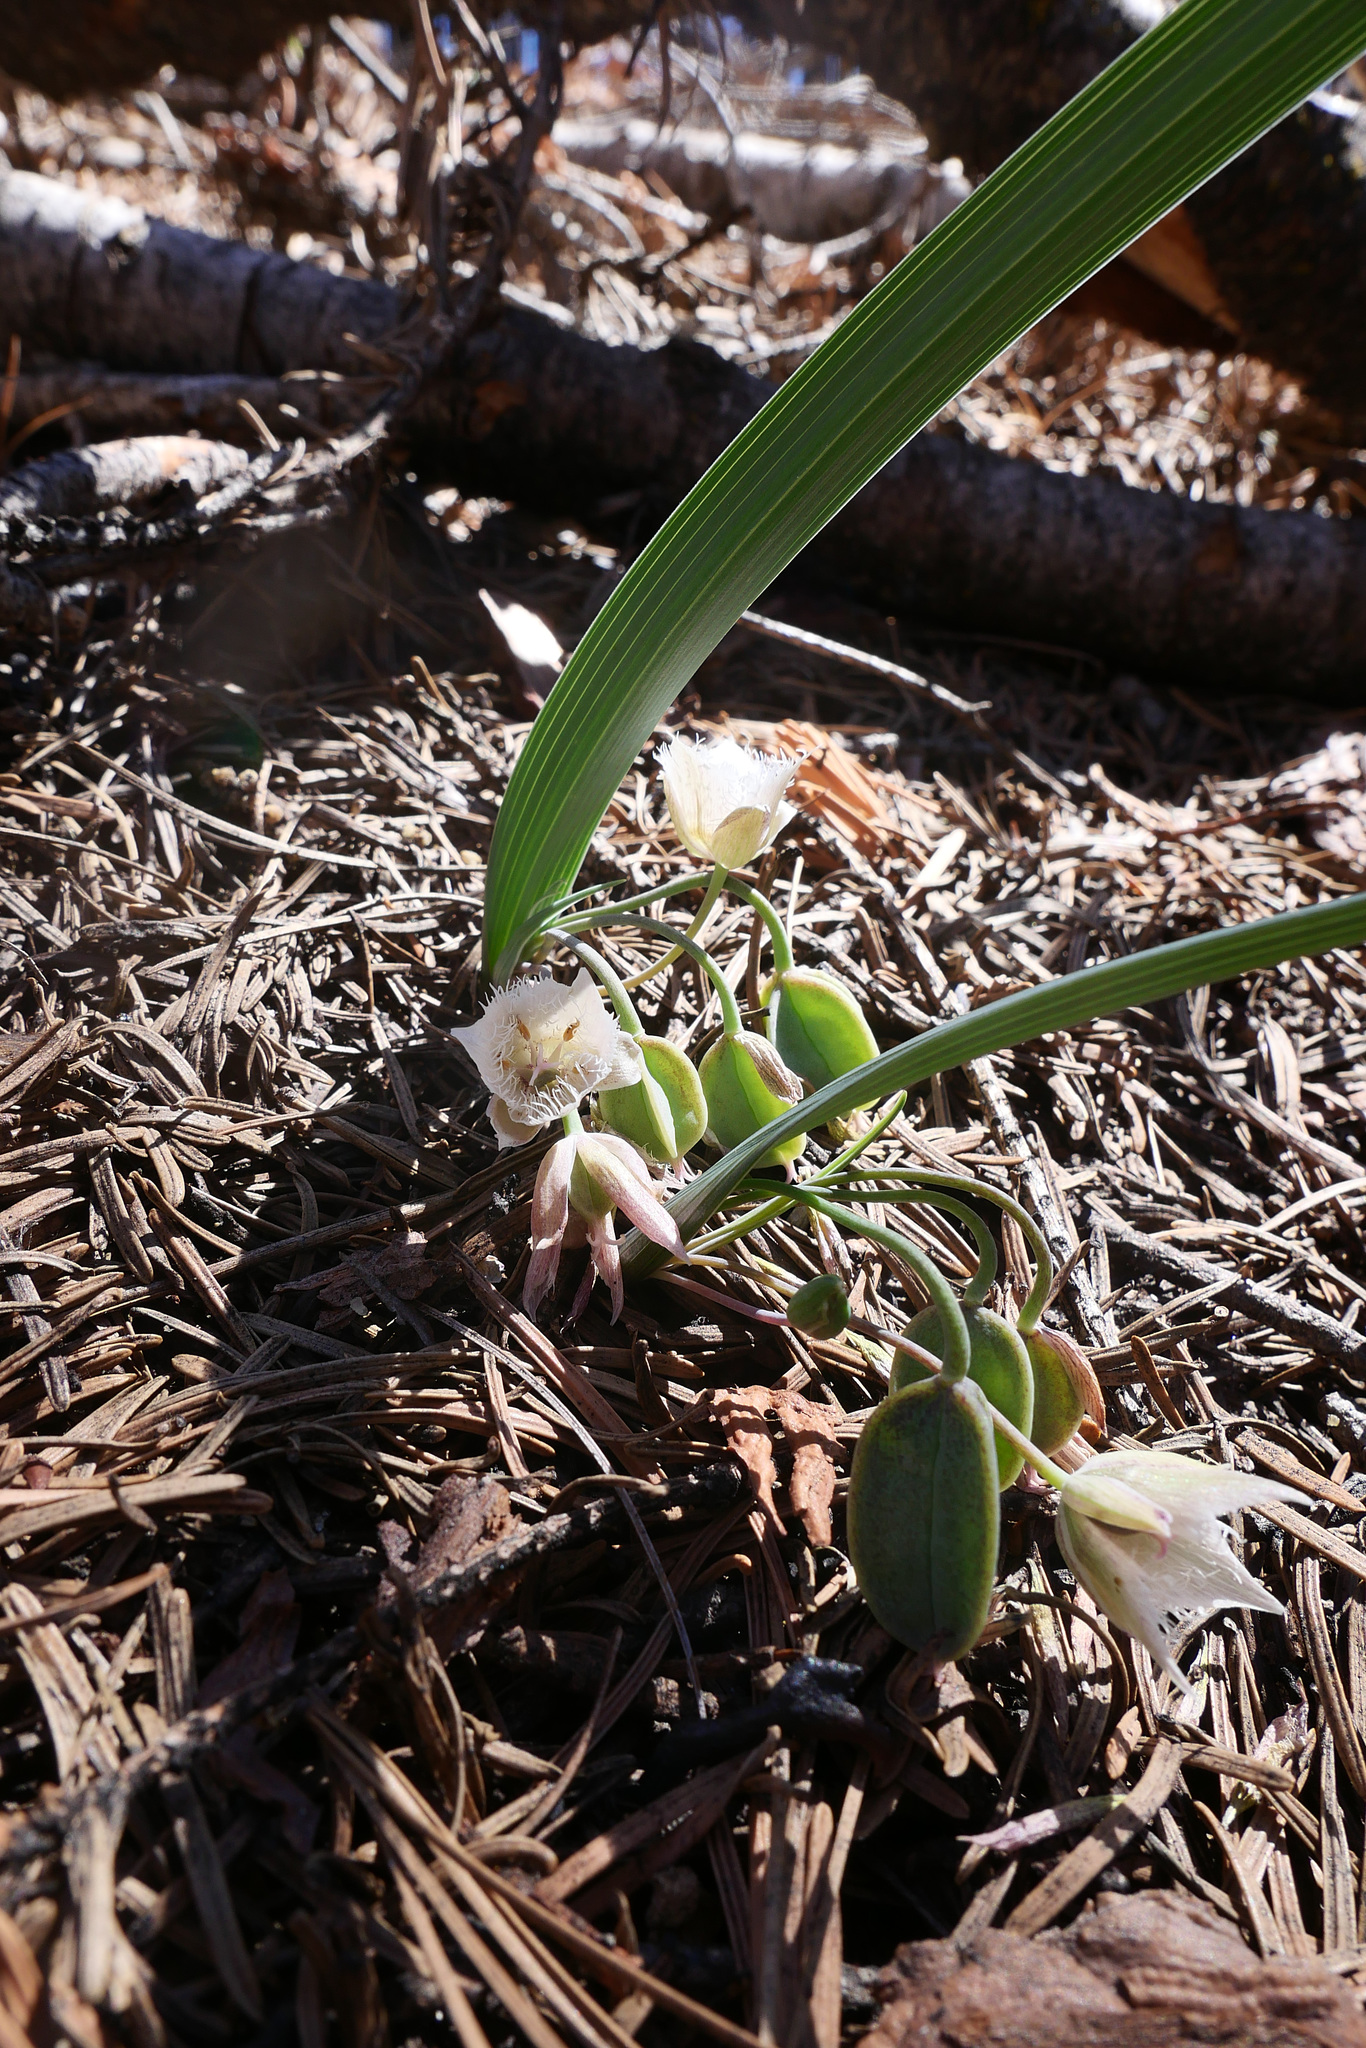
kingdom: Plantae
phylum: Tracheophyta
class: Liliopsida
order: Liliales
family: Liliaceae
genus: Calochortus
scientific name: Calochortus westonii
